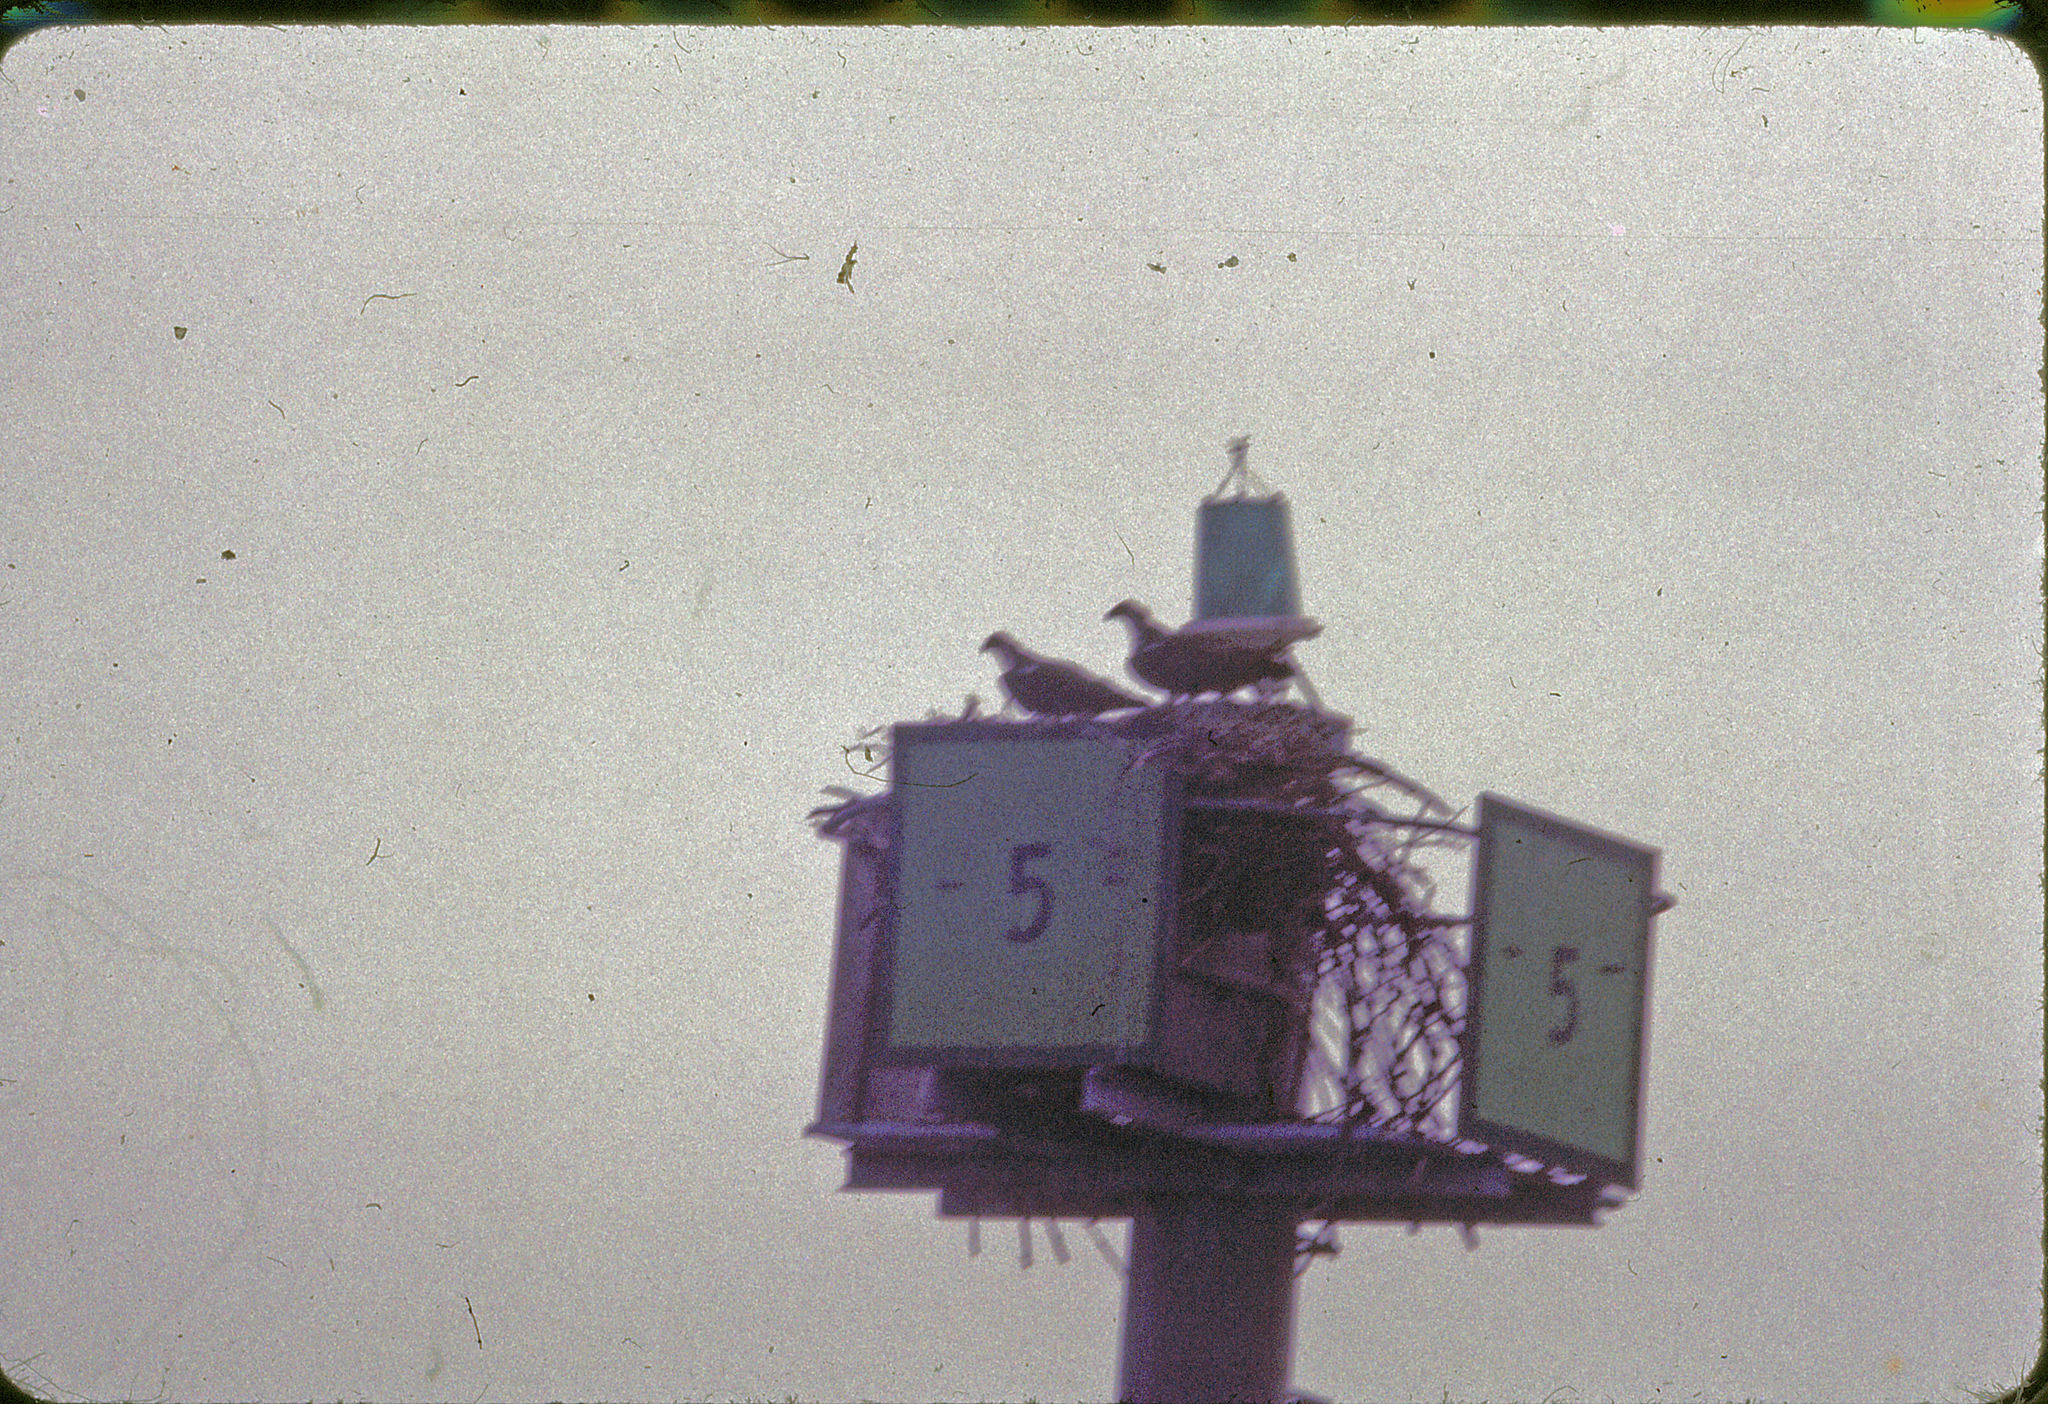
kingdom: Animalia
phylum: Chordata
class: Aves
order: Accipitriformes
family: Pandionidae
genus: Pandion
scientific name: Pandion haliaetus
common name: Osprey
